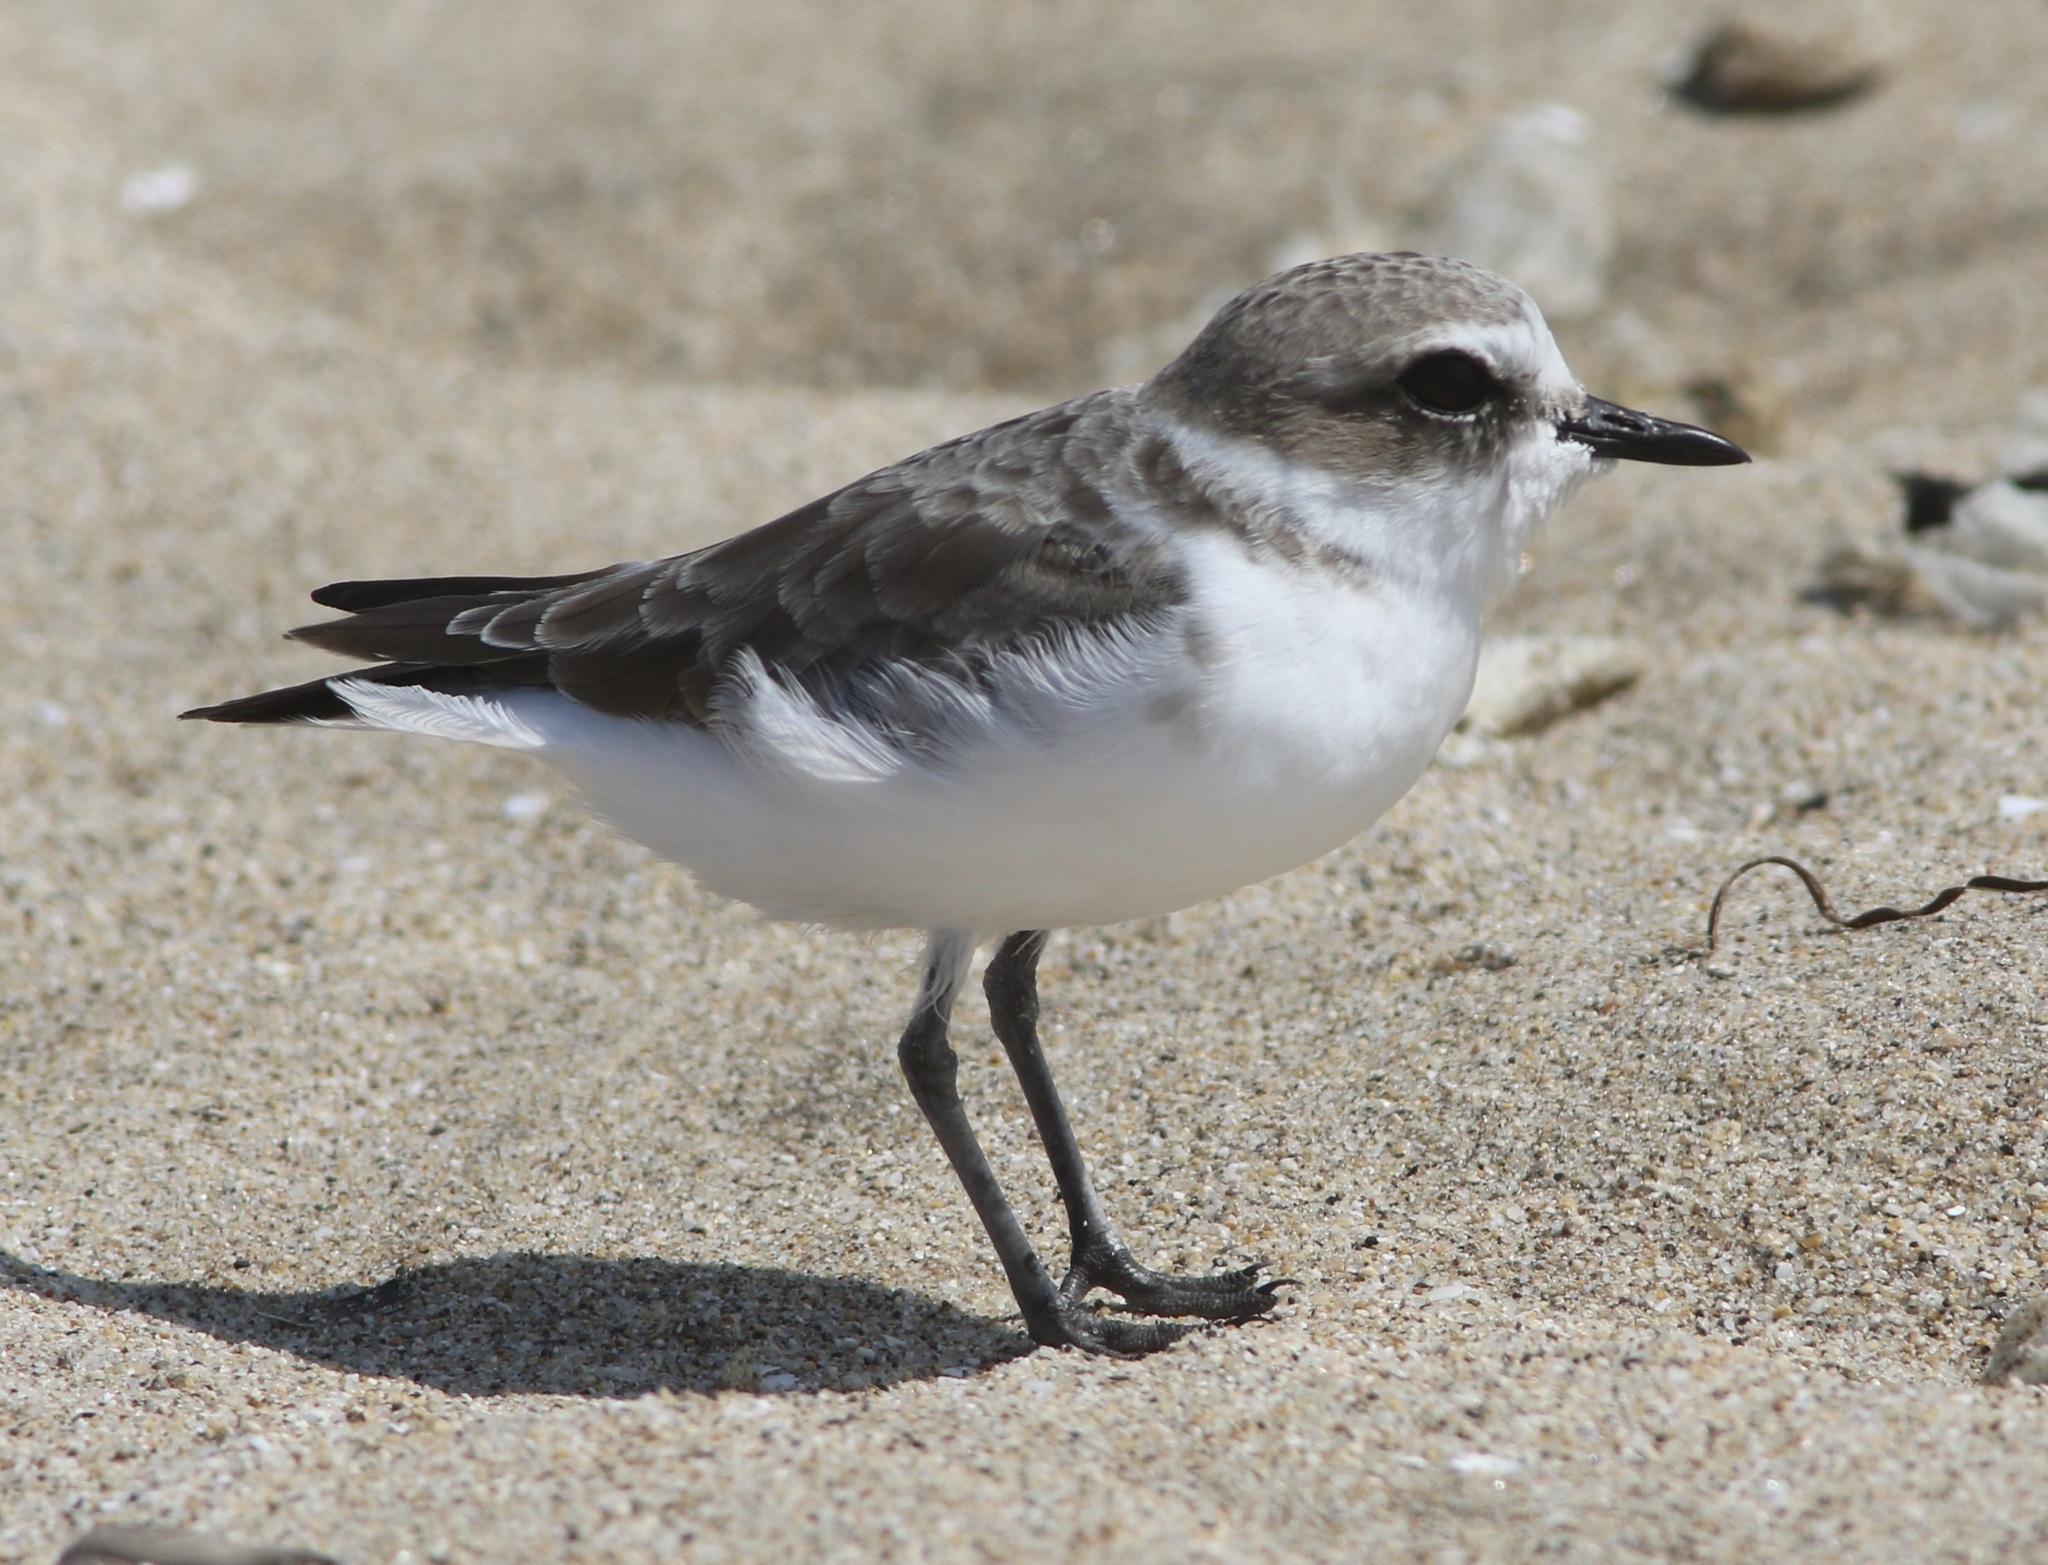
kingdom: Animalia
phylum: Chordata
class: Aves
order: Charadriiformes
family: Charadriidae
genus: Anarhynchus
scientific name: Anarhynchus
